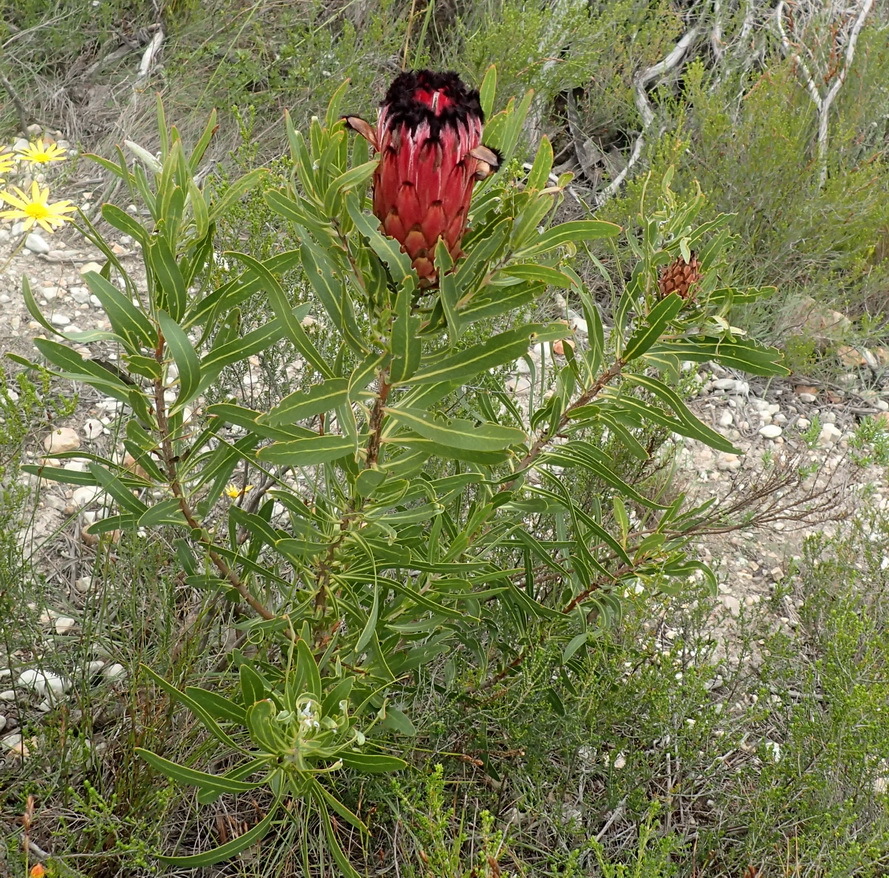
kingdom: Plantae
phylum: Tracheophyta
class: Magnoliopsida
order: Proteales
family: Proteaceae
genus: Protea
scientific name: Protea neriifolia
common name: Blue sugarbush
